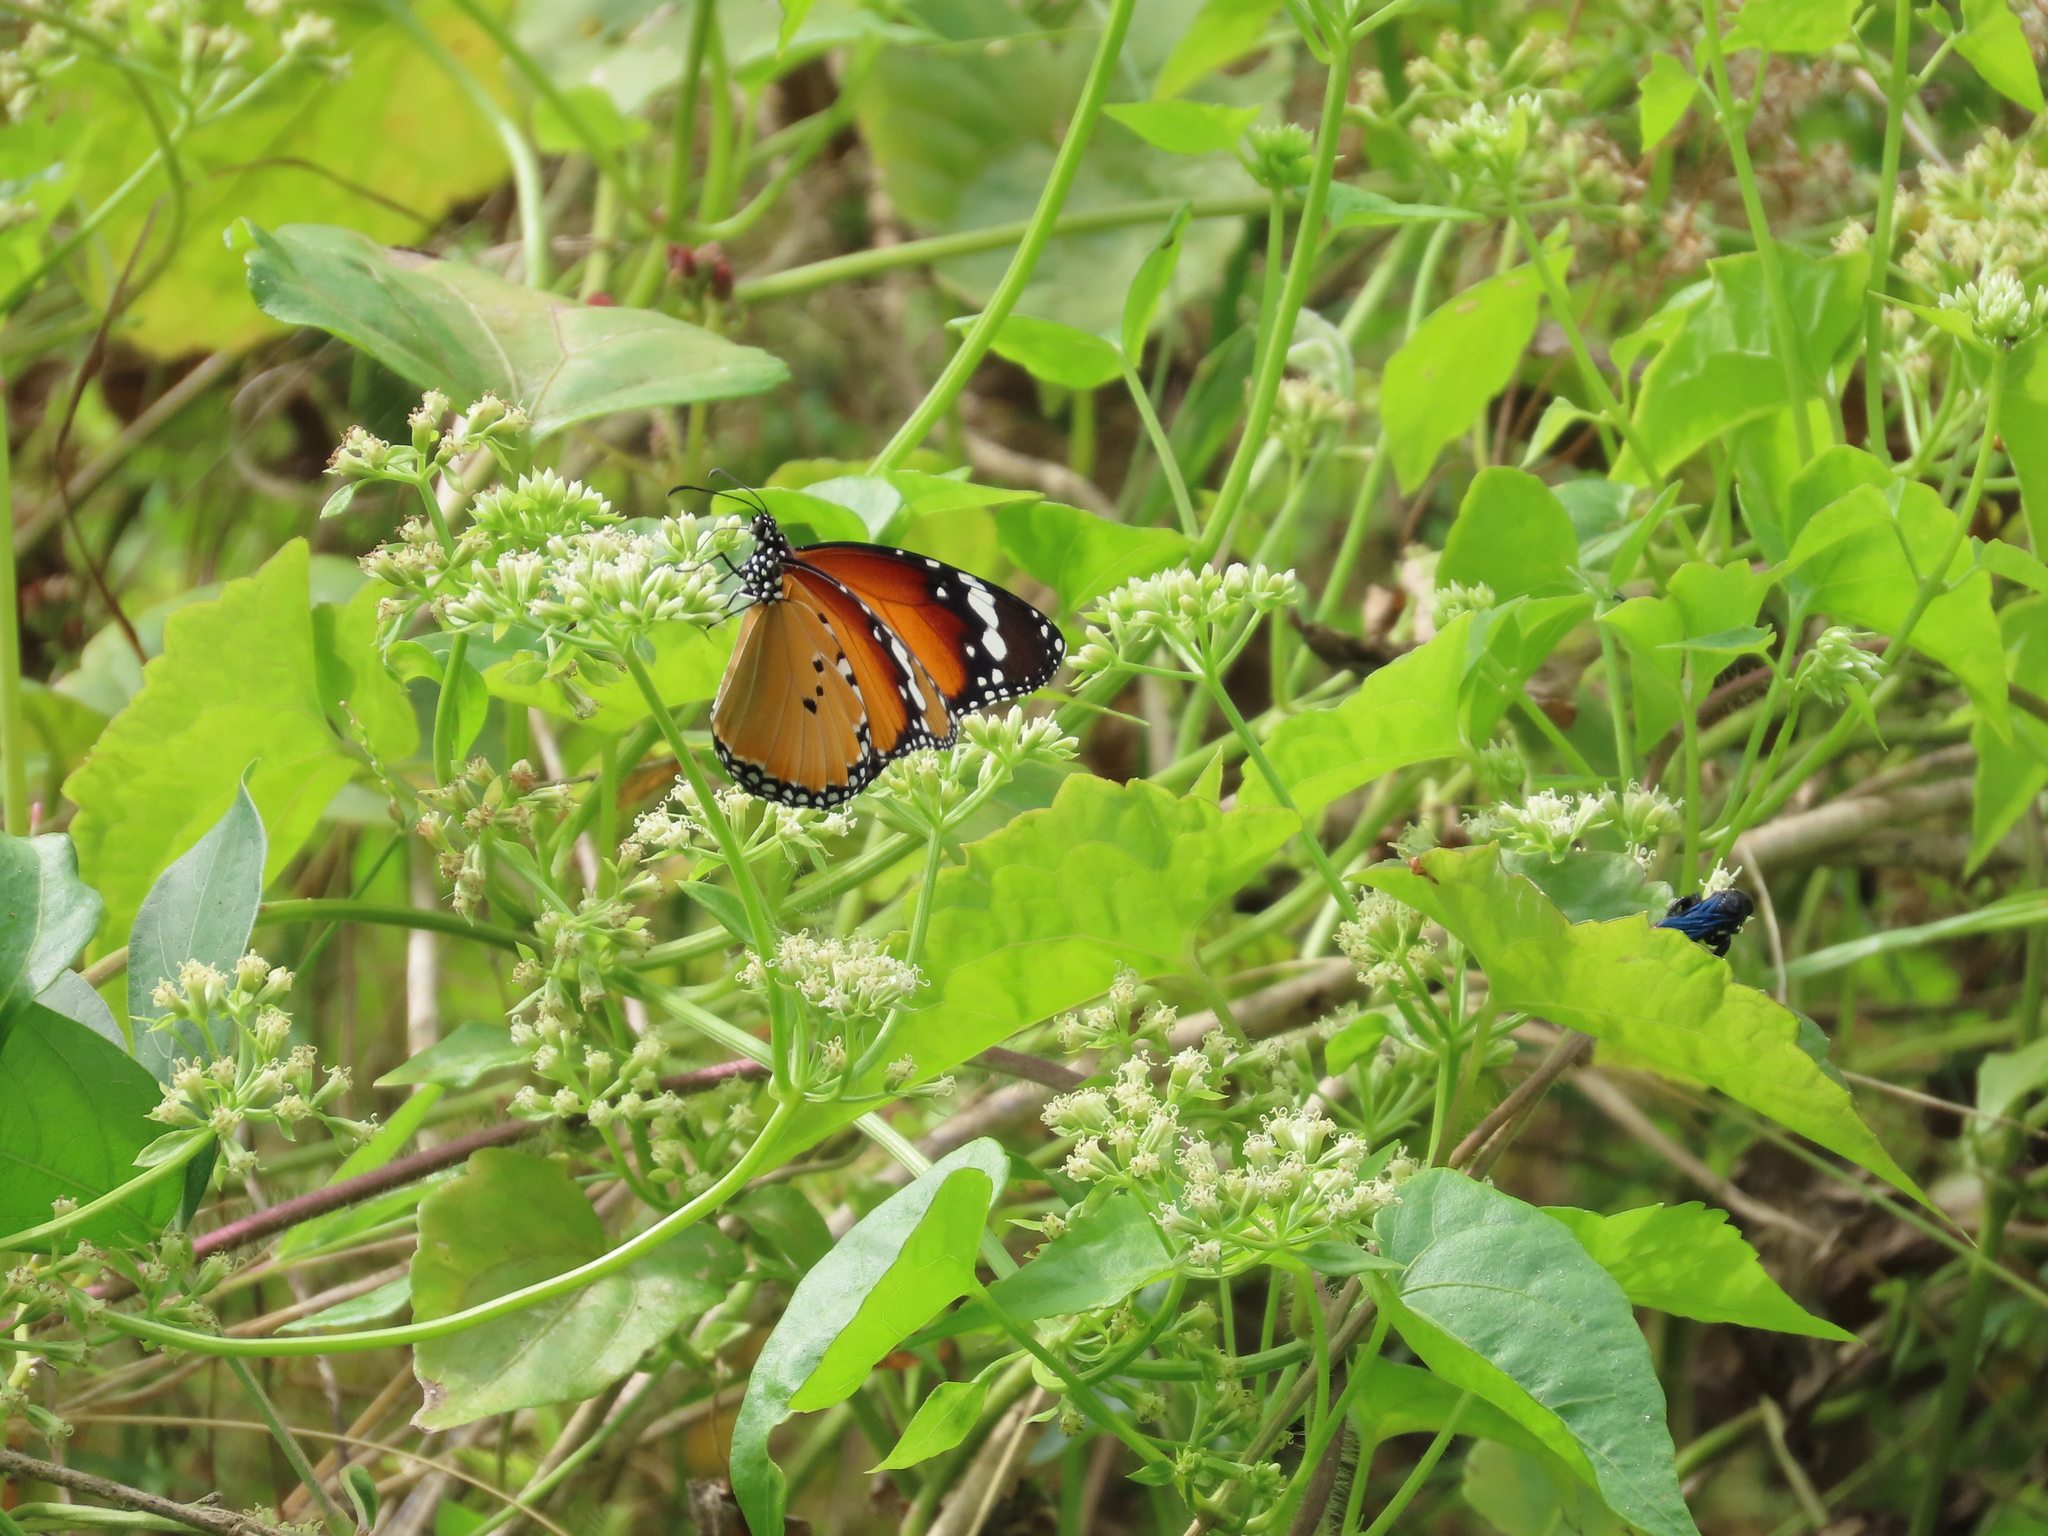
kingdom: Animalia
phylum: Arthropoda
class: Insecta
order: Lepidoptera
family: Nymphalidae
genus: Danaus
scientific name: Danaus chrysippus
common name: Plain tiger
